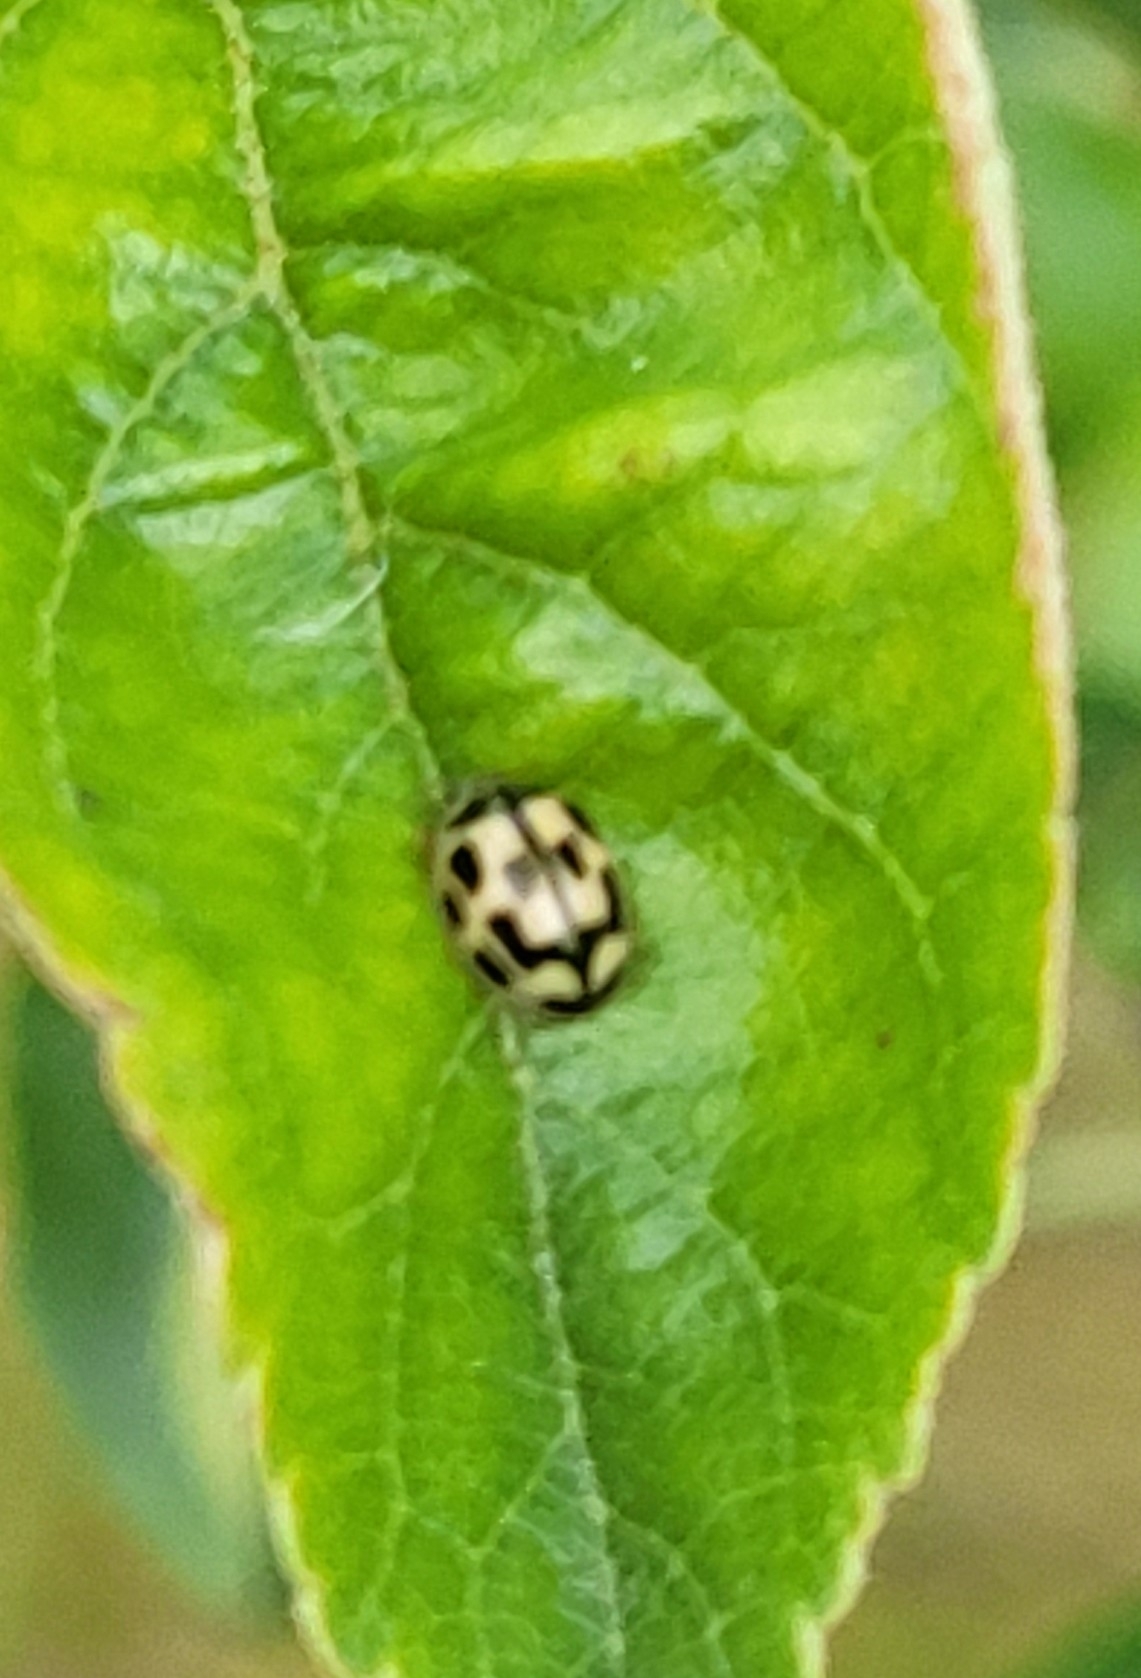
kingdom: Animalia
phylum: Arthropoda
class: Insecta
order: Coleoptera
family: Coccinellidae
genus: Propylaea
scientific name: Propylaea quatuordecimpunctata
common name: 14-spotted ladybird beetle
